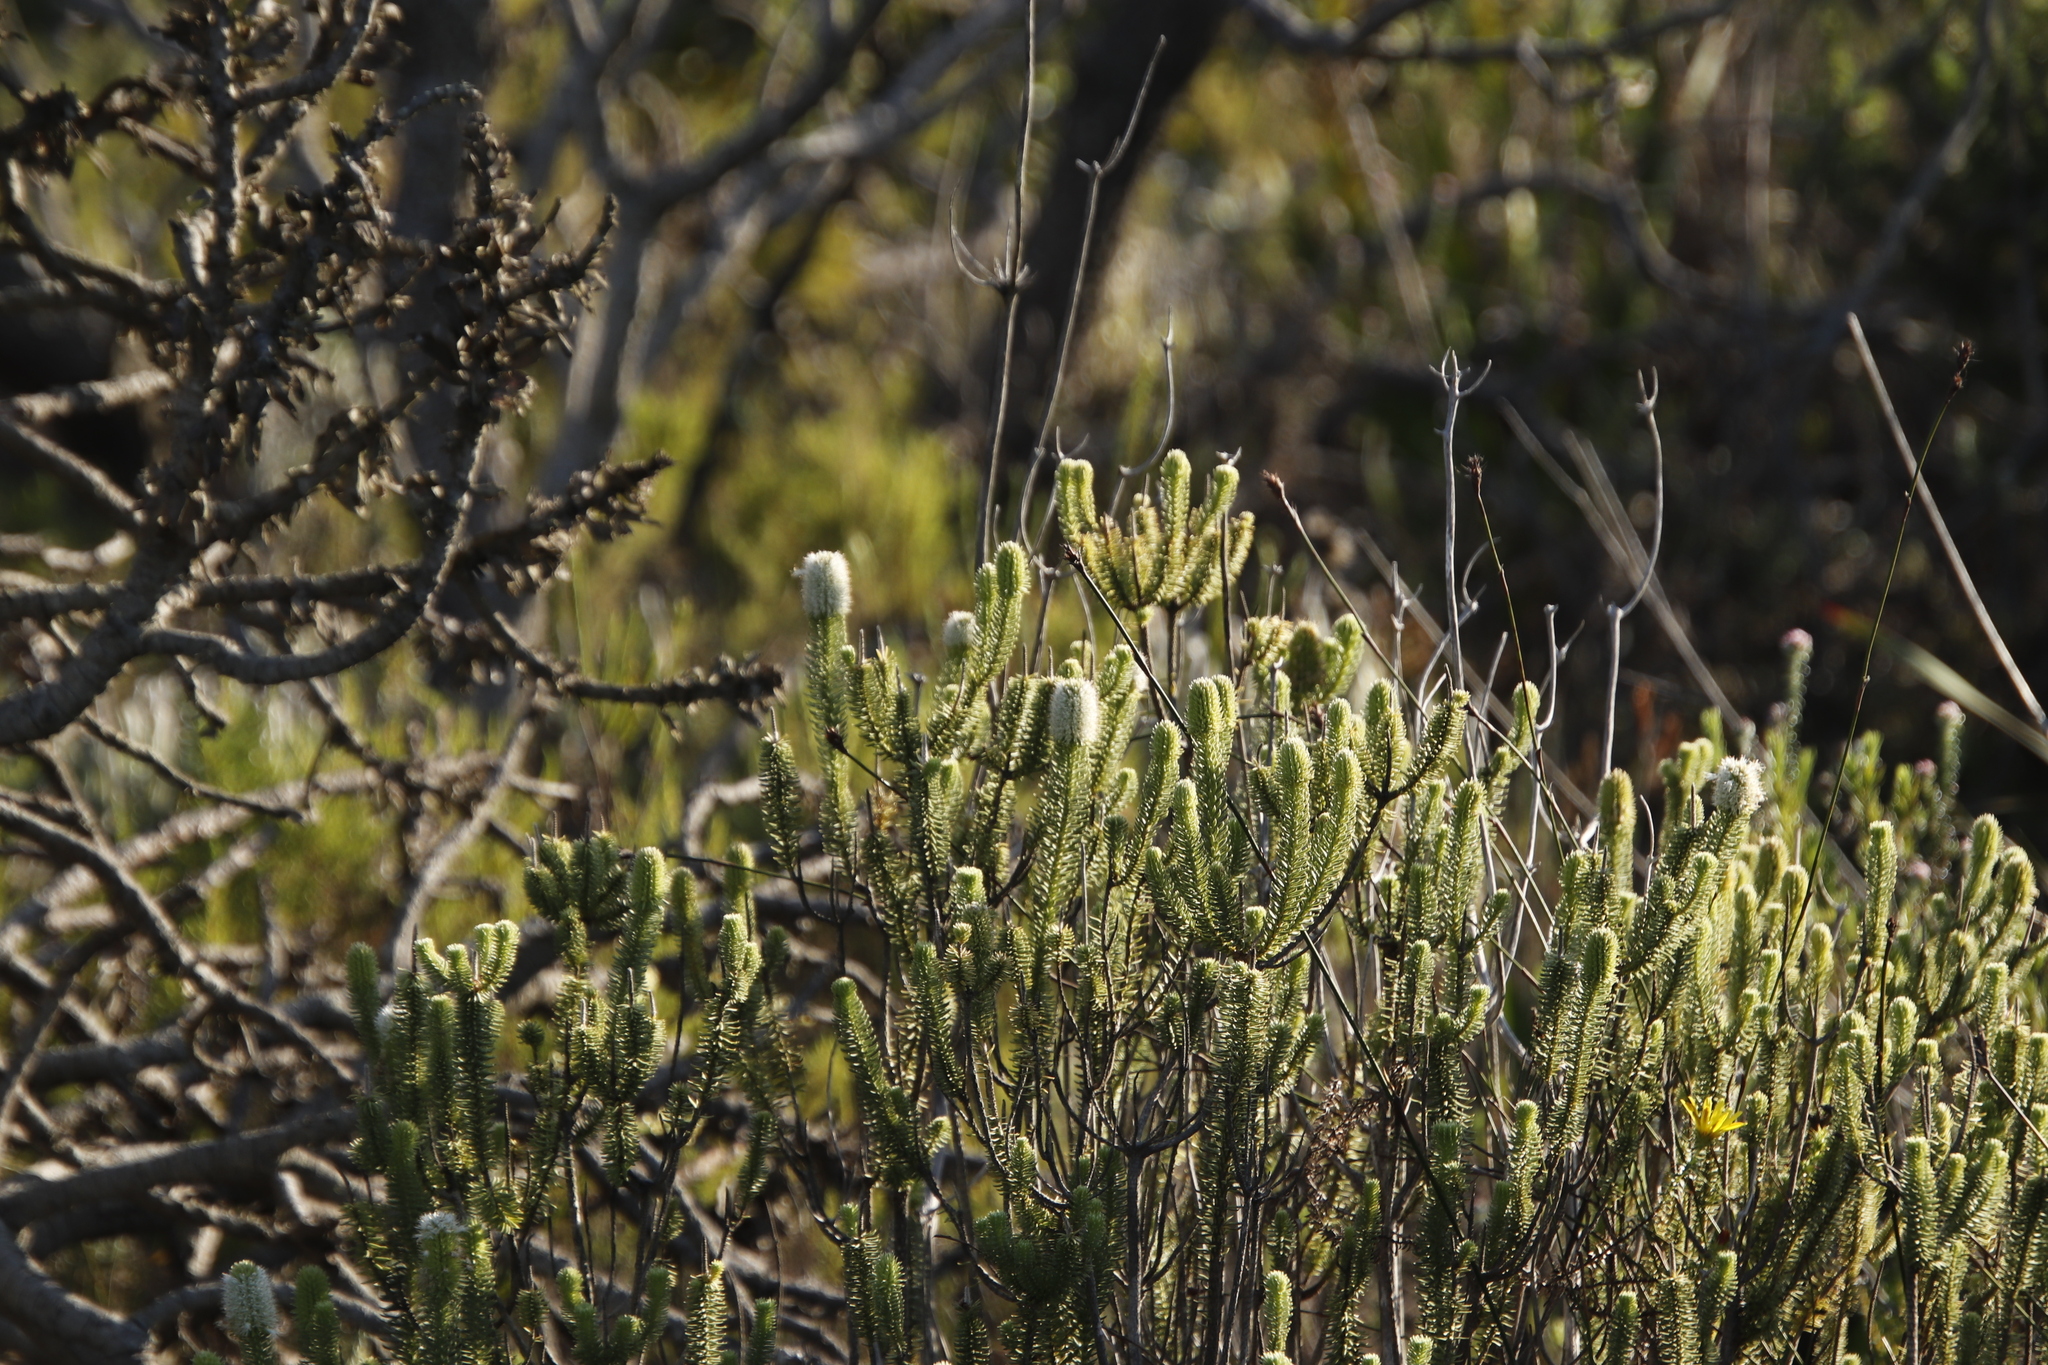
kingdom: Plantae
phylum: Tracheophyta
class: Magnoliopsida
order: Lamiales
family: Stilbaceae
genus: Stilbe
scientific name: Stilbe vestita
